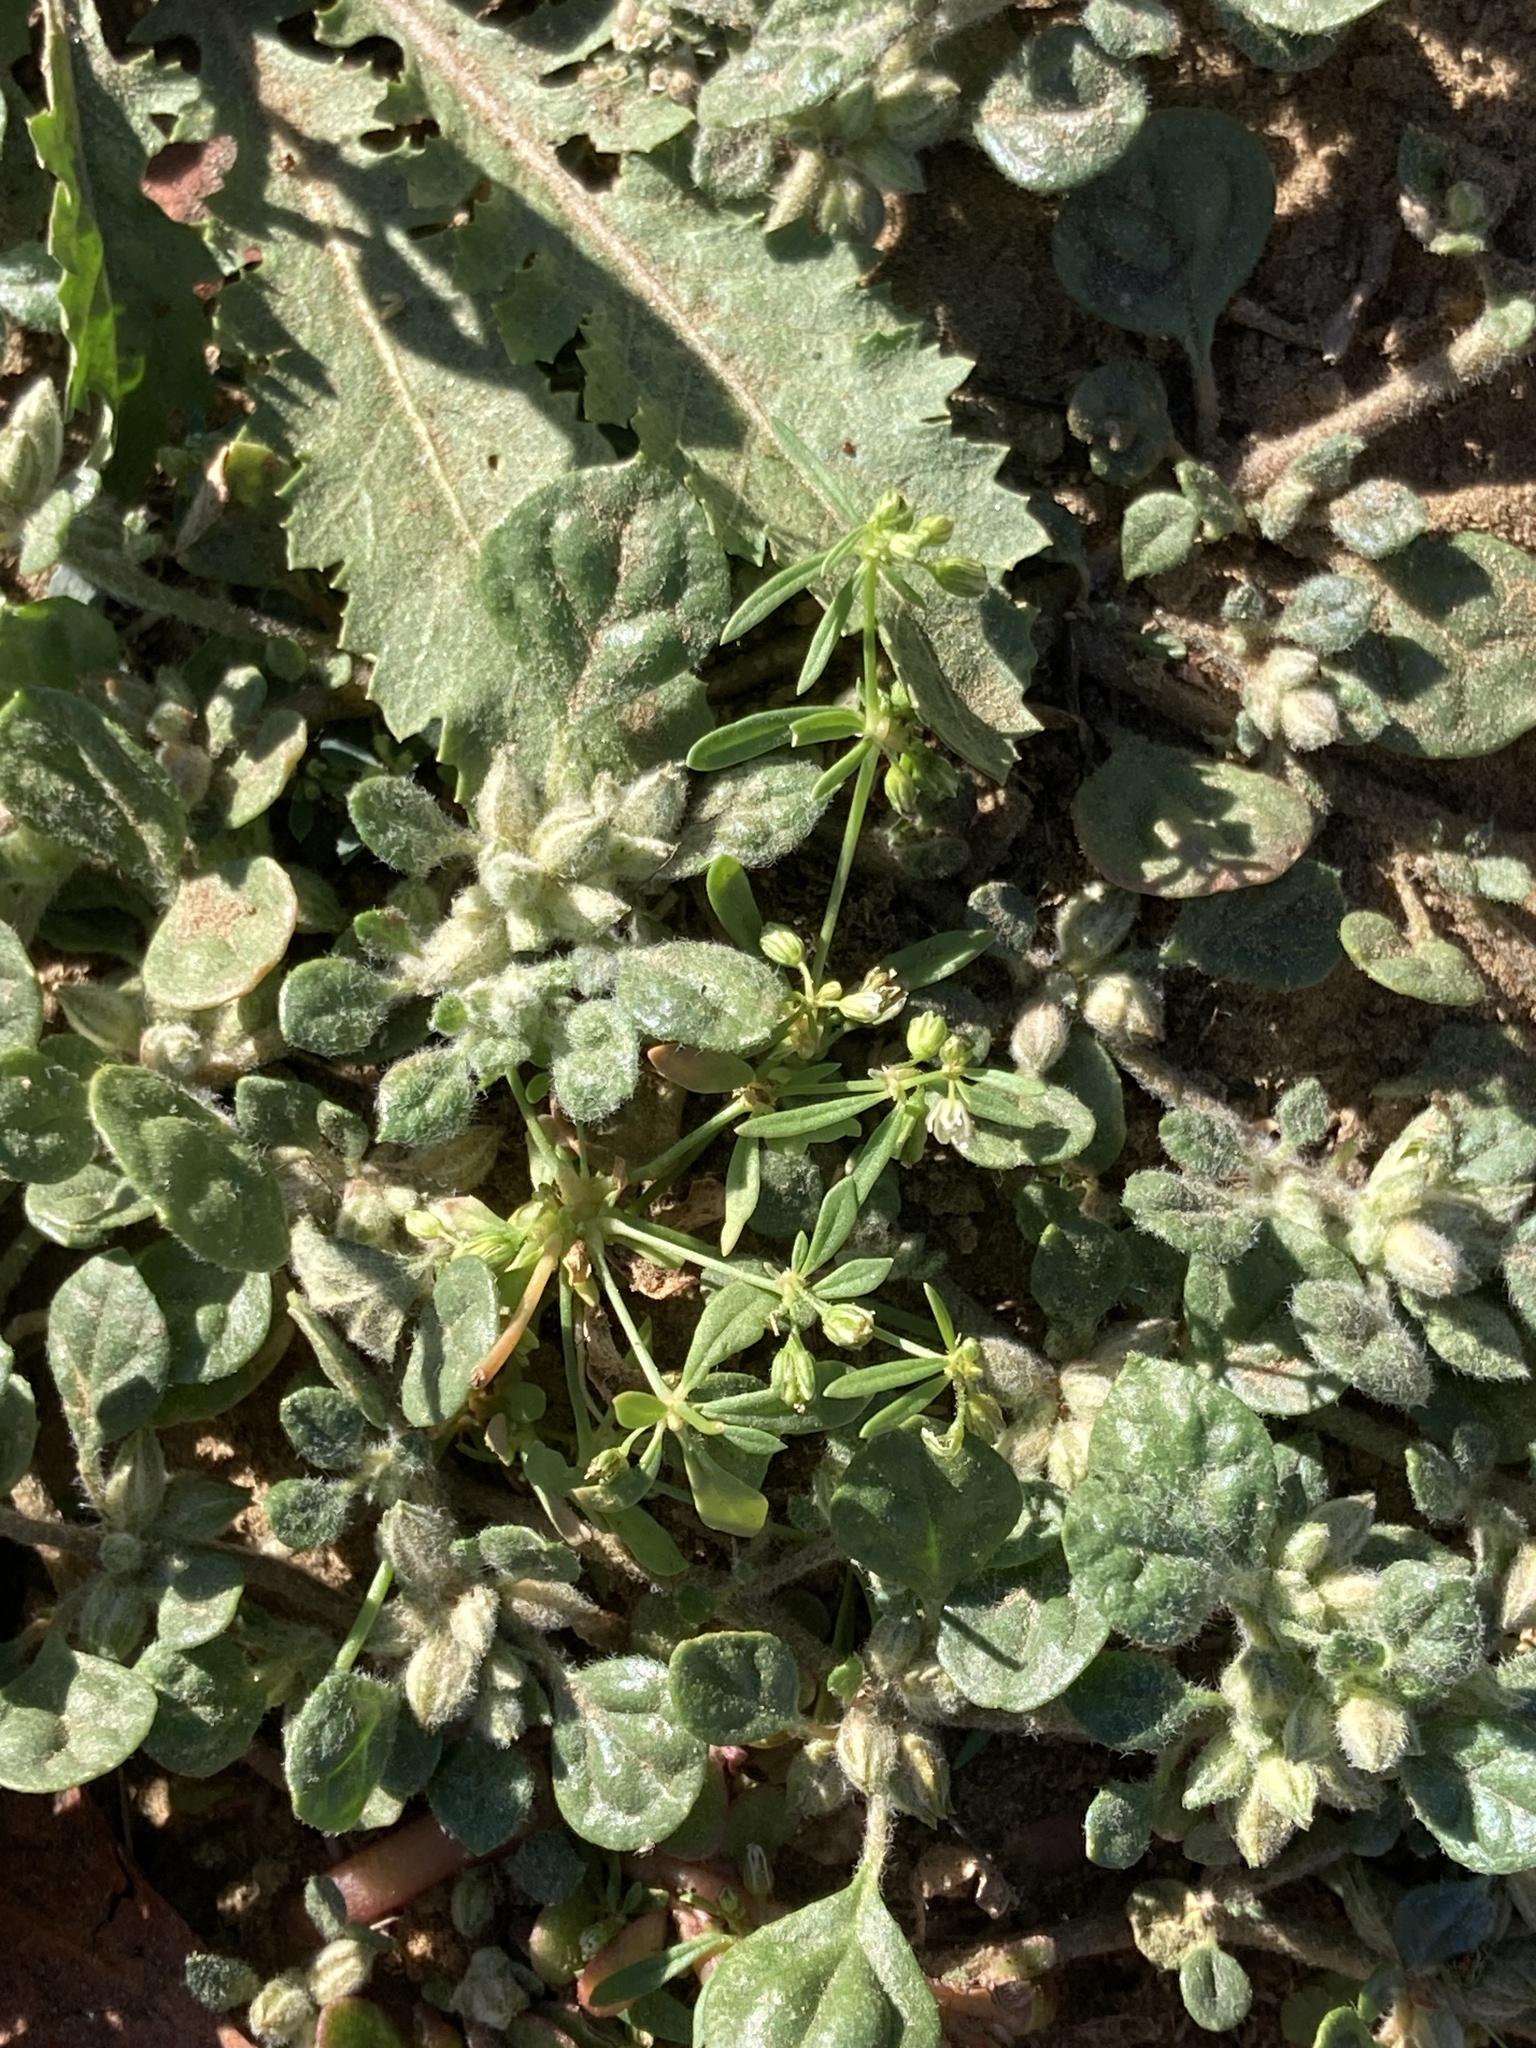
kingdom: Plantae
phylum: Tracheophyta
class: Magnoliopsida
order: Caryophyllales
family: Molluginaceae
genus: Glinus
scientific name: Glinus lotoides
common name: Lotus sweetjuice
